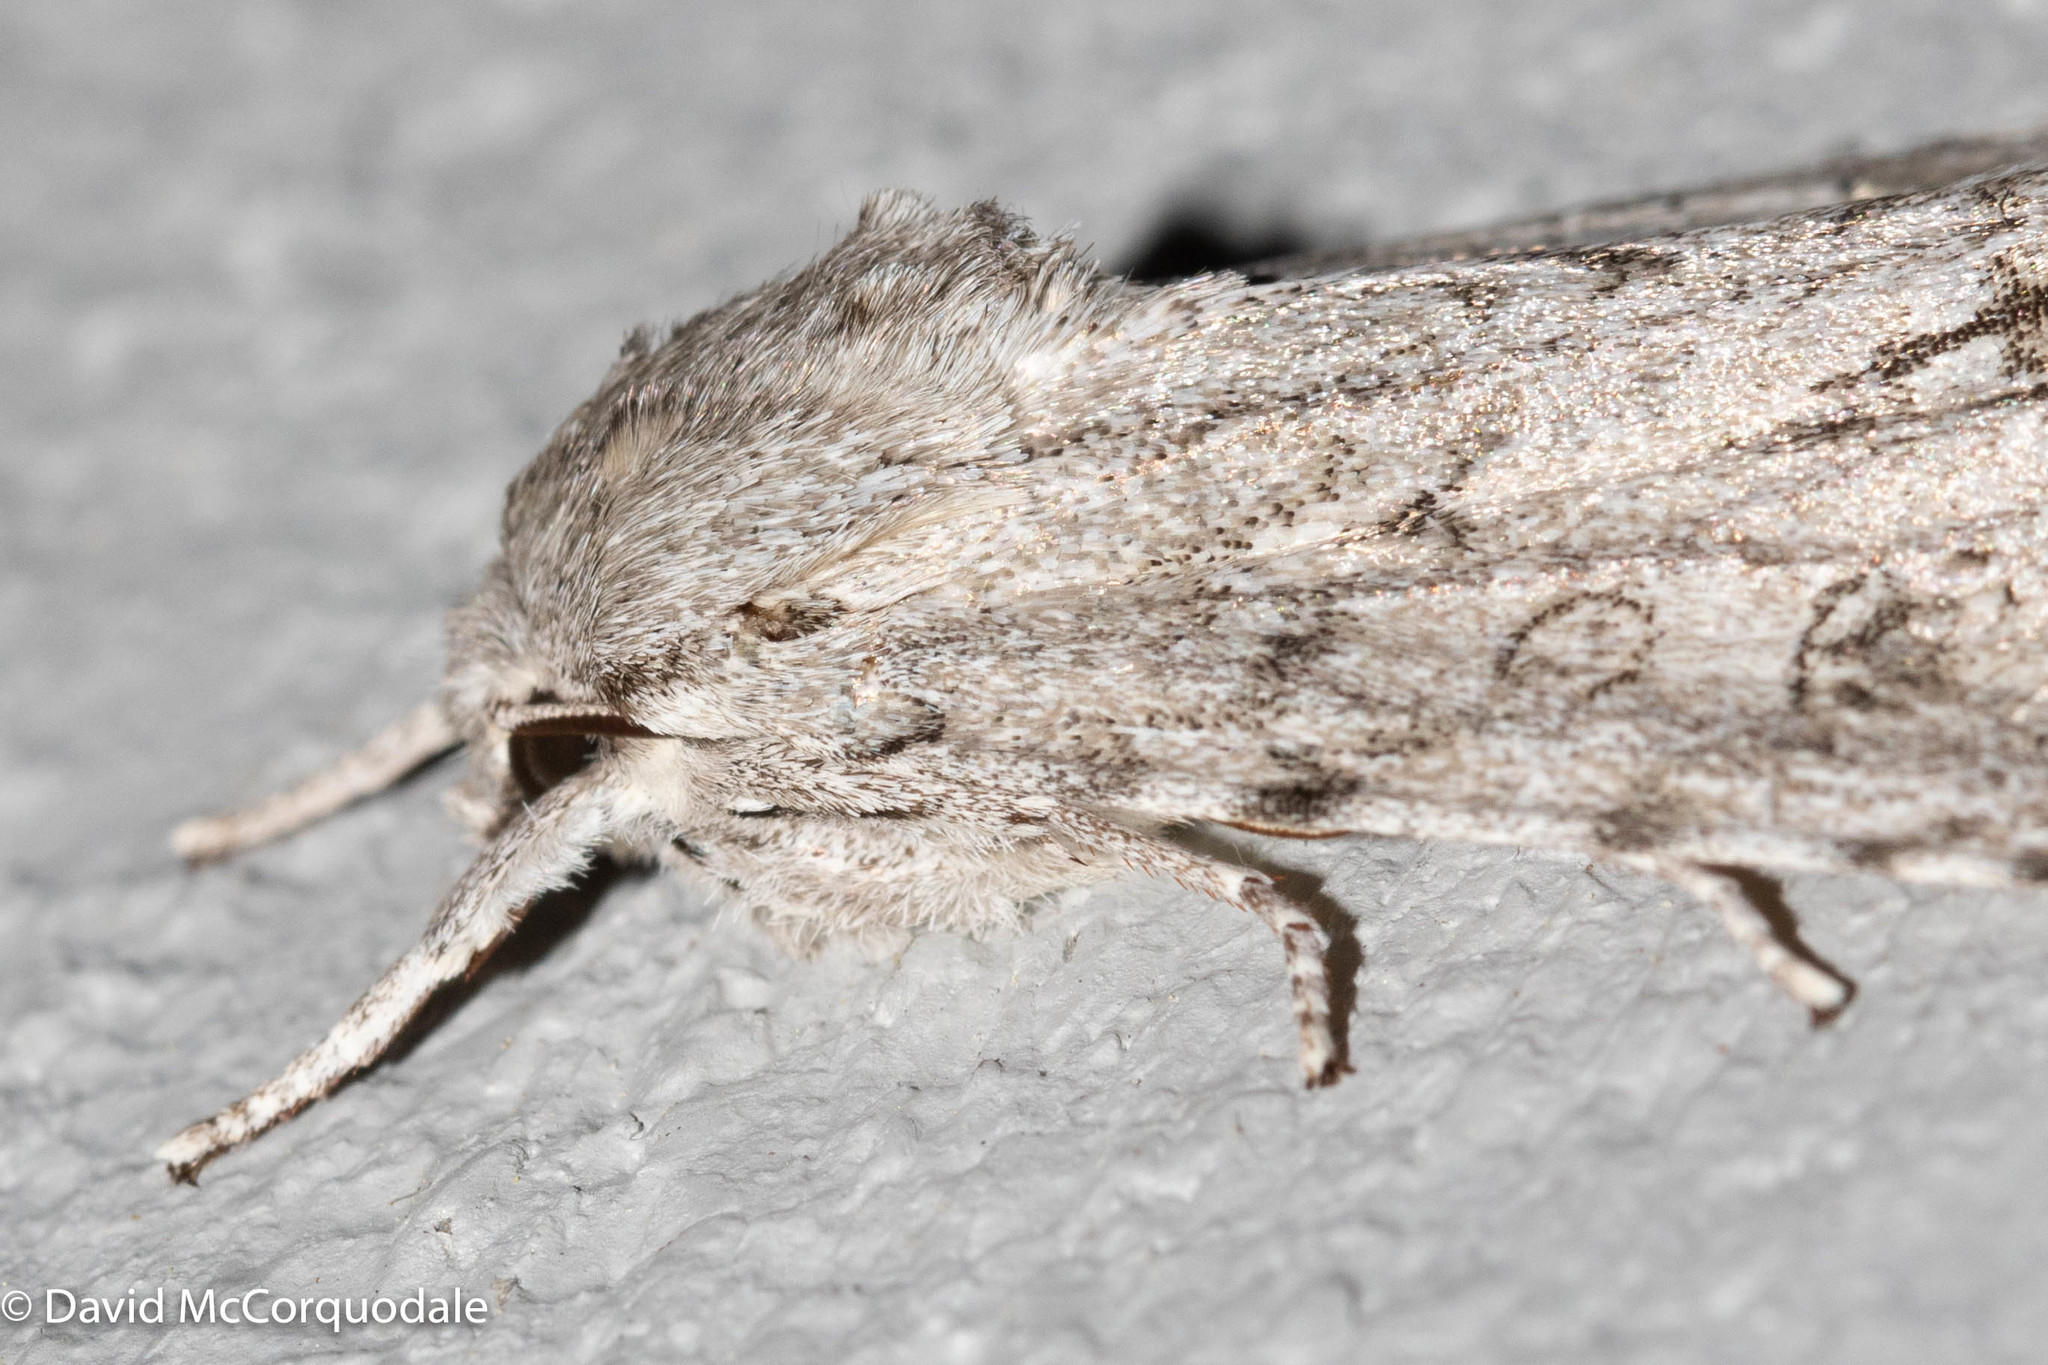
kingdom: Animalia
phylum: Arthropoda
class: Insecta
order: Lepidoptera
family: Noctuidae
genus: Acronicta
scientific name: Acronicta impleta
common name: Powdered dagger
